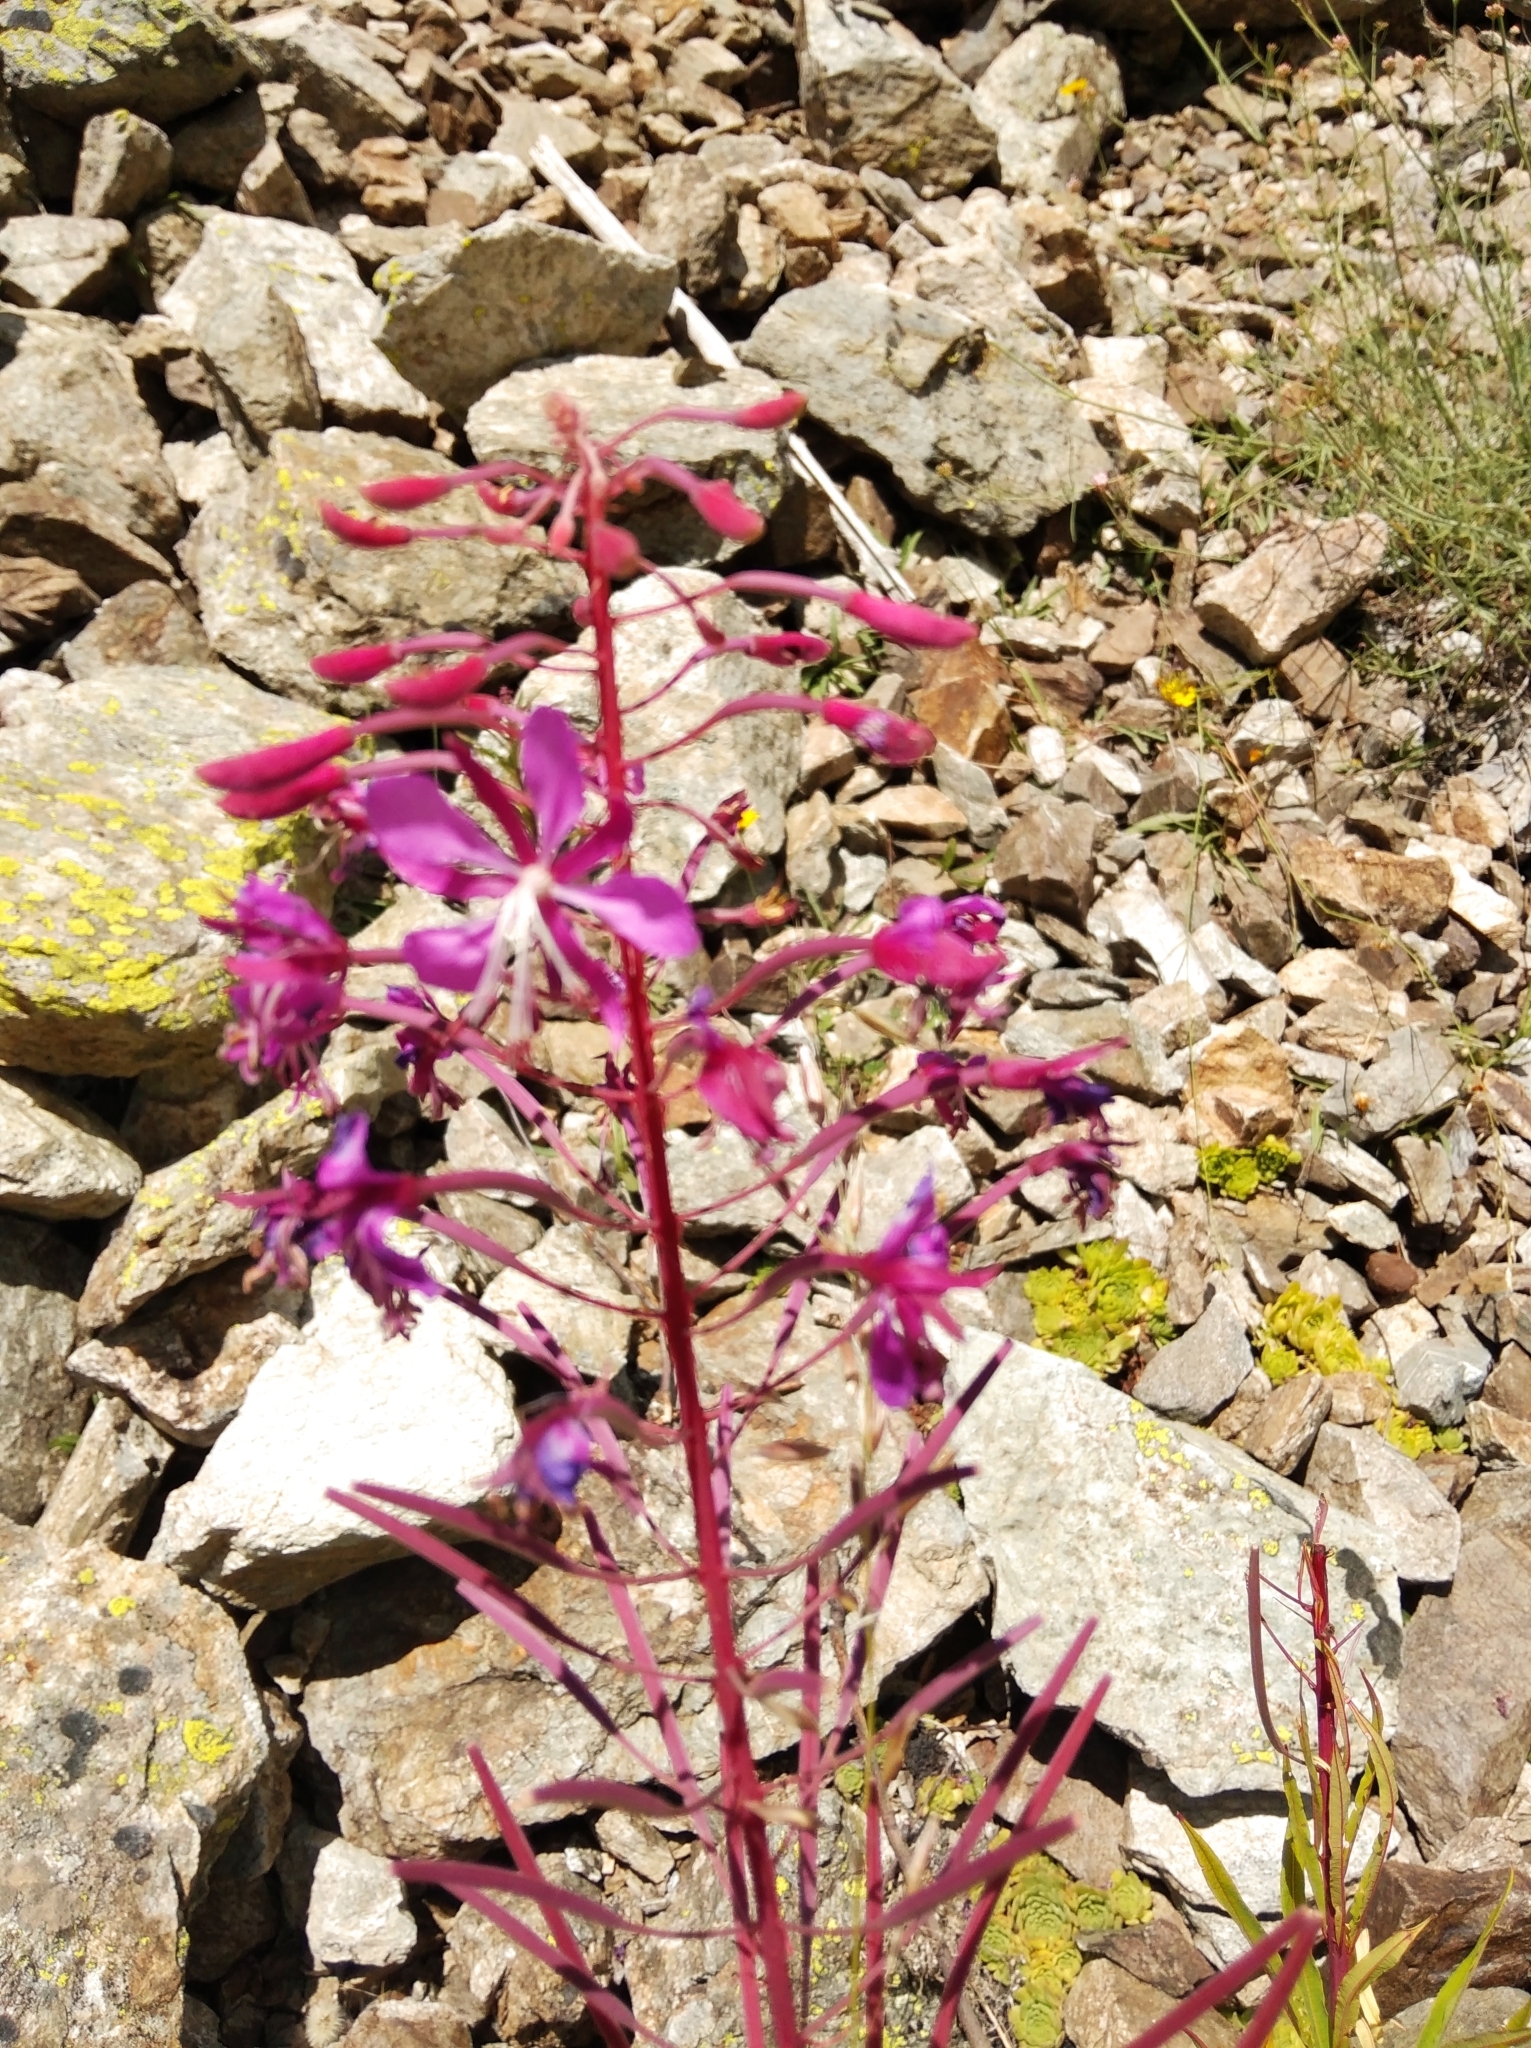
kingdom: Plantae
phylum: Tracheophyta
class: Magnoliopsida
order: Myrtales
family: Onagraceae
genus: Chamaenerion
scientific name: Chamaenerion angustifolium
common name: Fireweed
